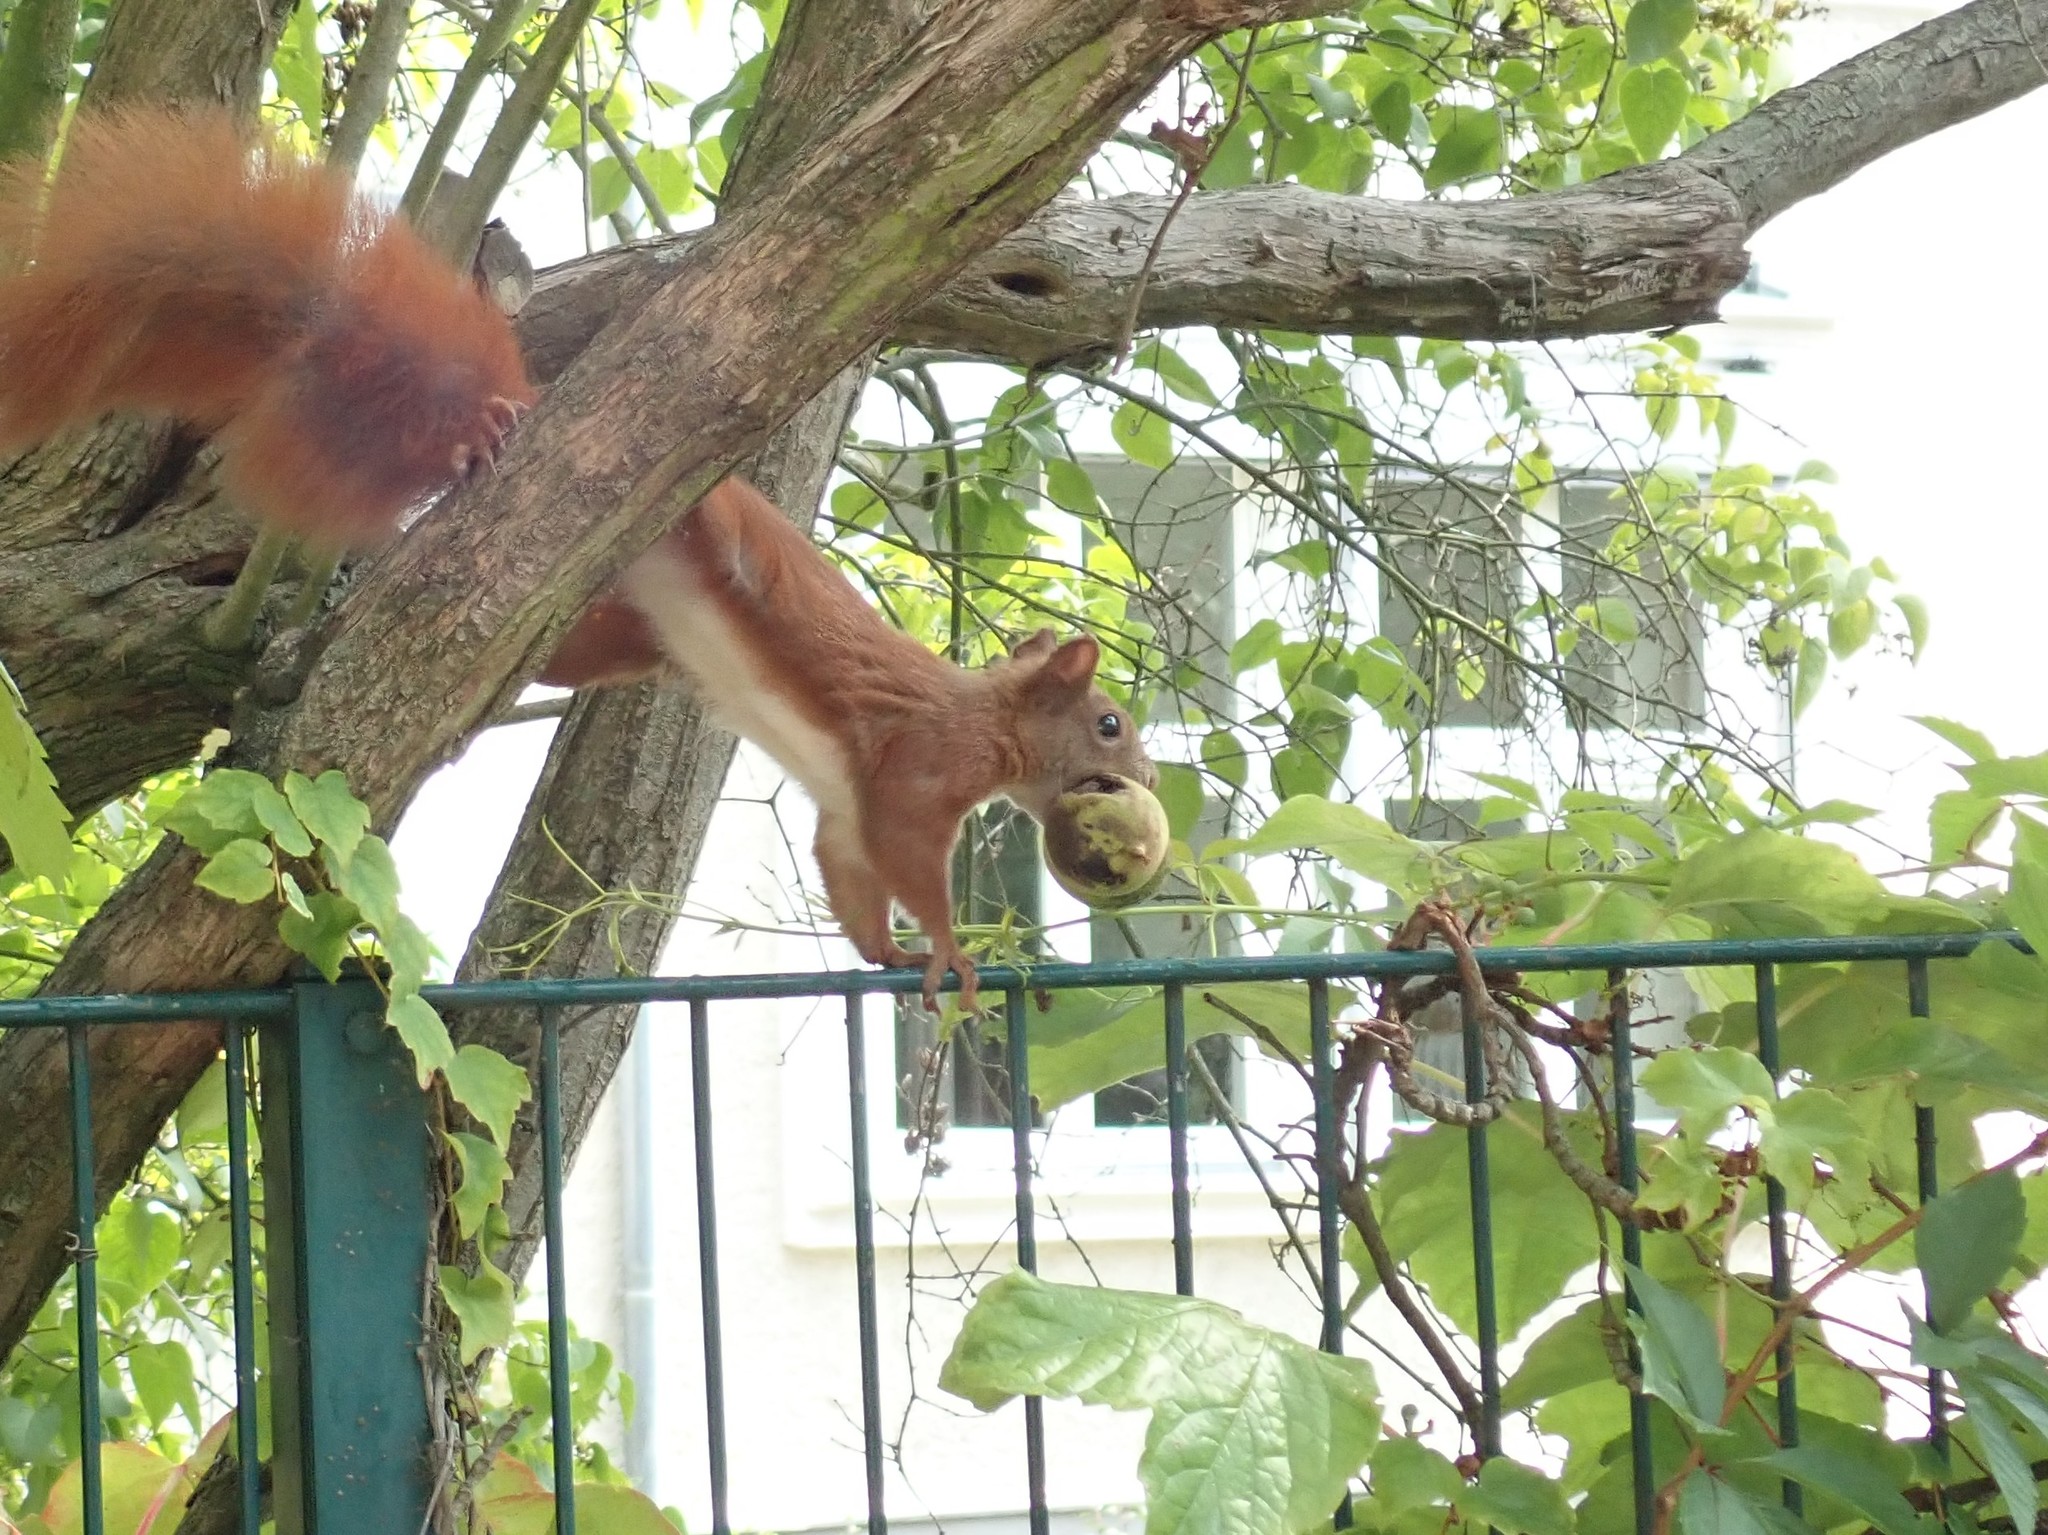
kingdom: Animalia
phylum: Chordata
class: Mammalia
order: Rodentia
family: Sciuridae
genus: Sciurus
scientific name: Sciurus vulgaris
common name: Eurasian red squirrel
